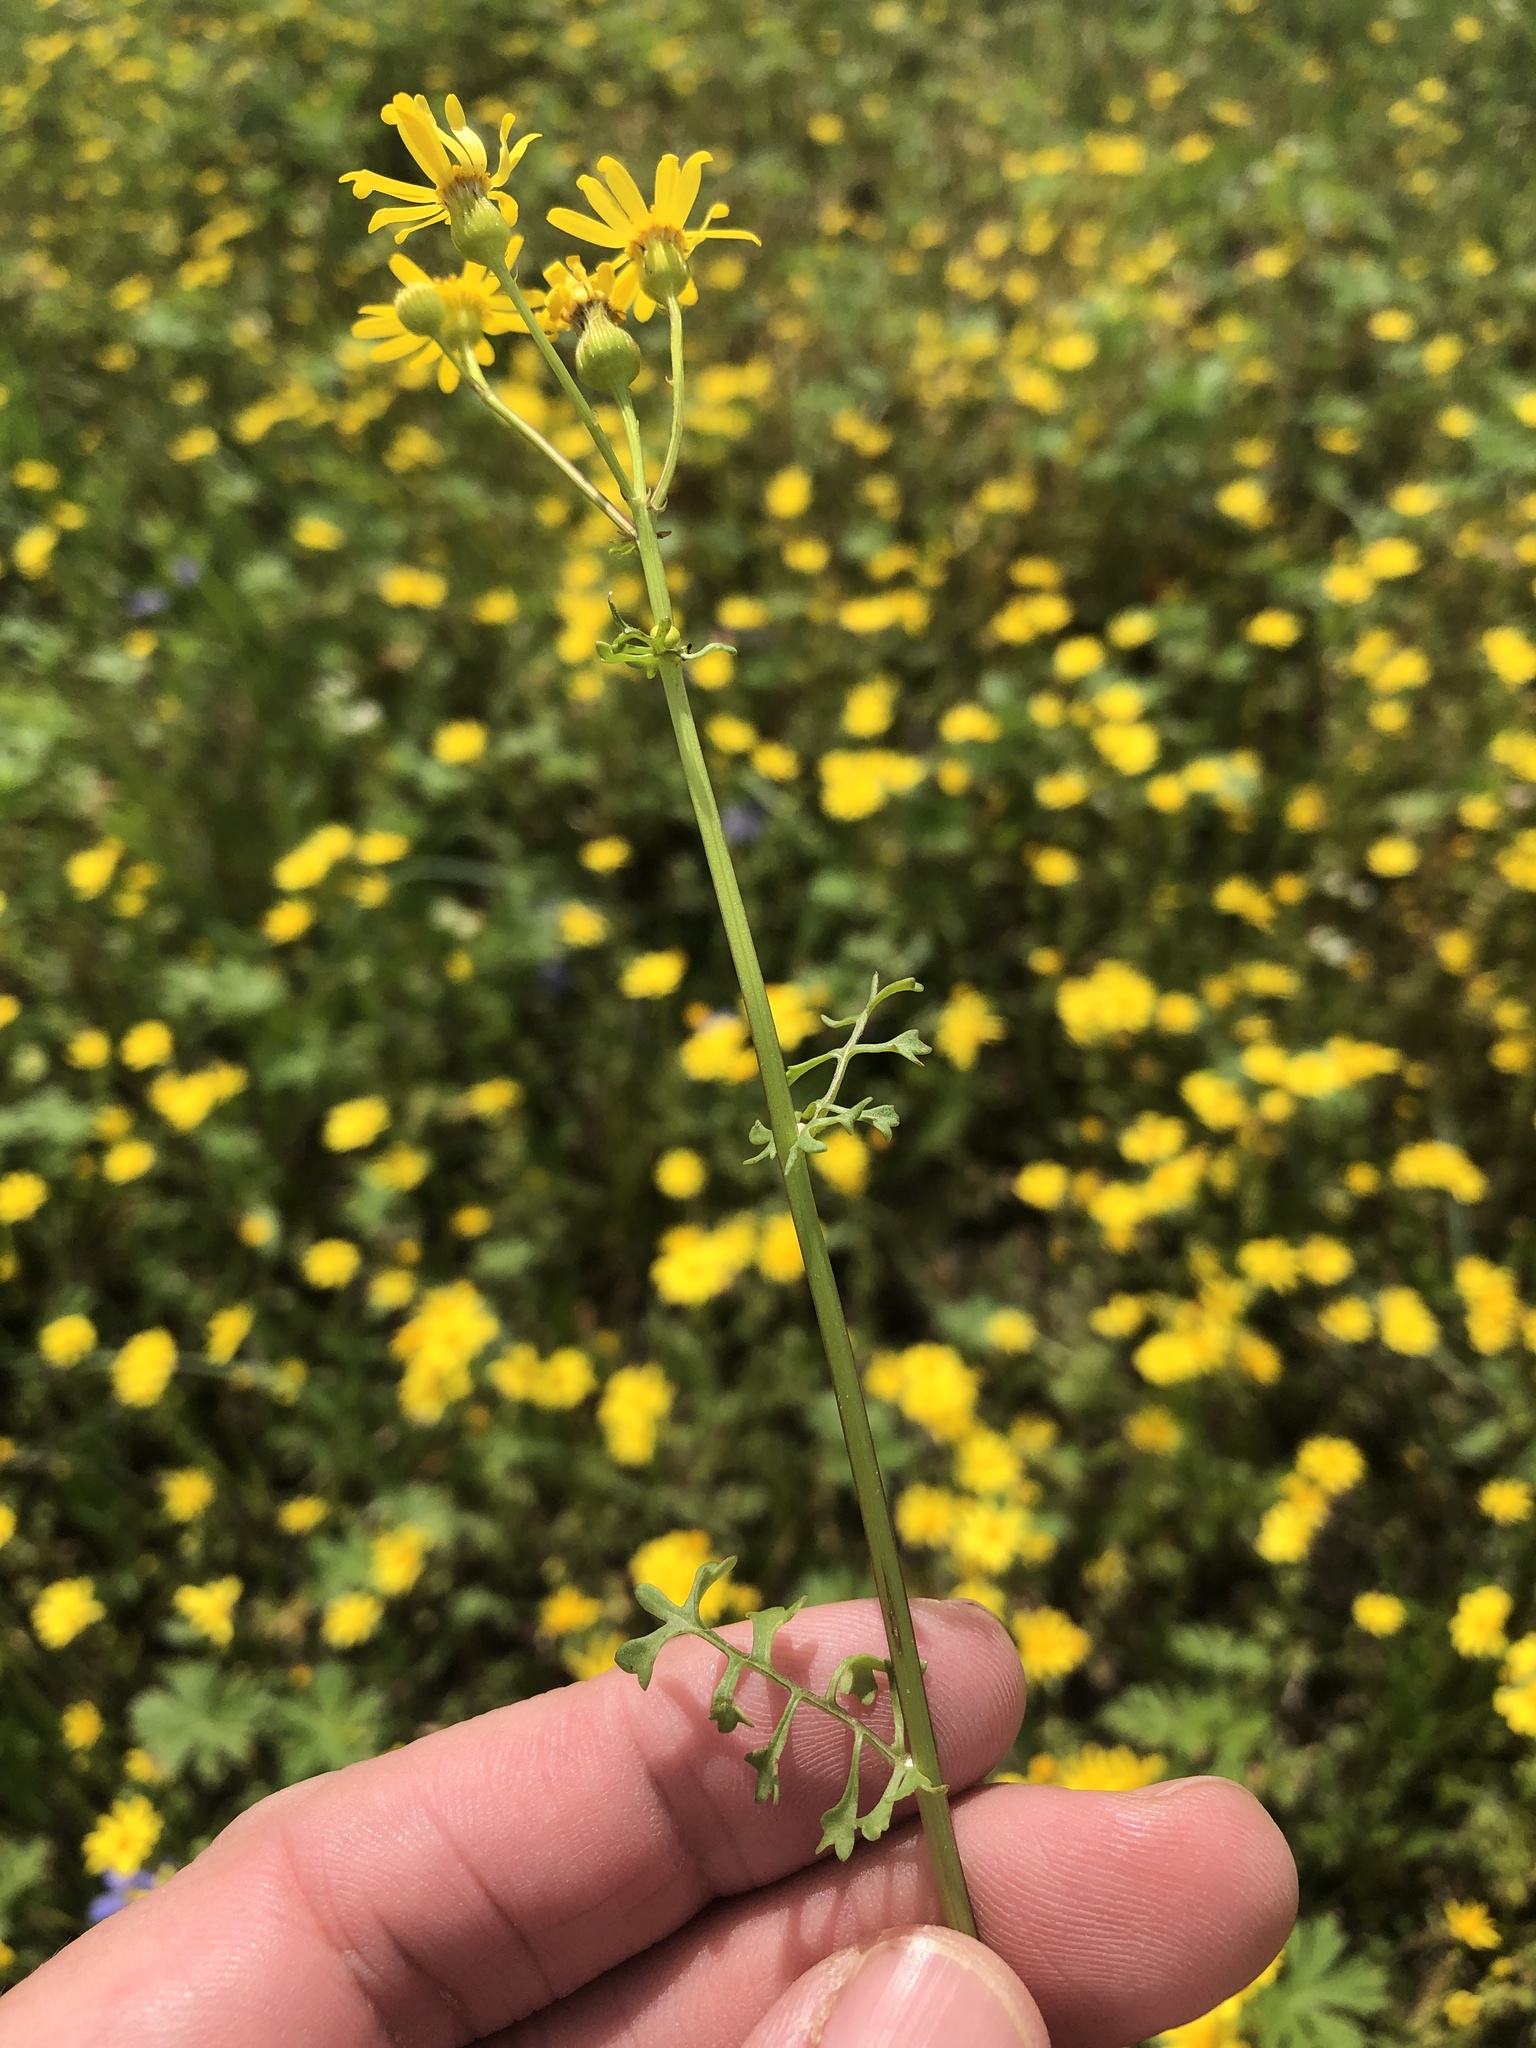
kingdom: Plantae
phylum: Tracheophyta
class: Magnoliopsida
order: Asterales
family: Asteraceae
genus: Packera
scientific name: Packera tampicana
